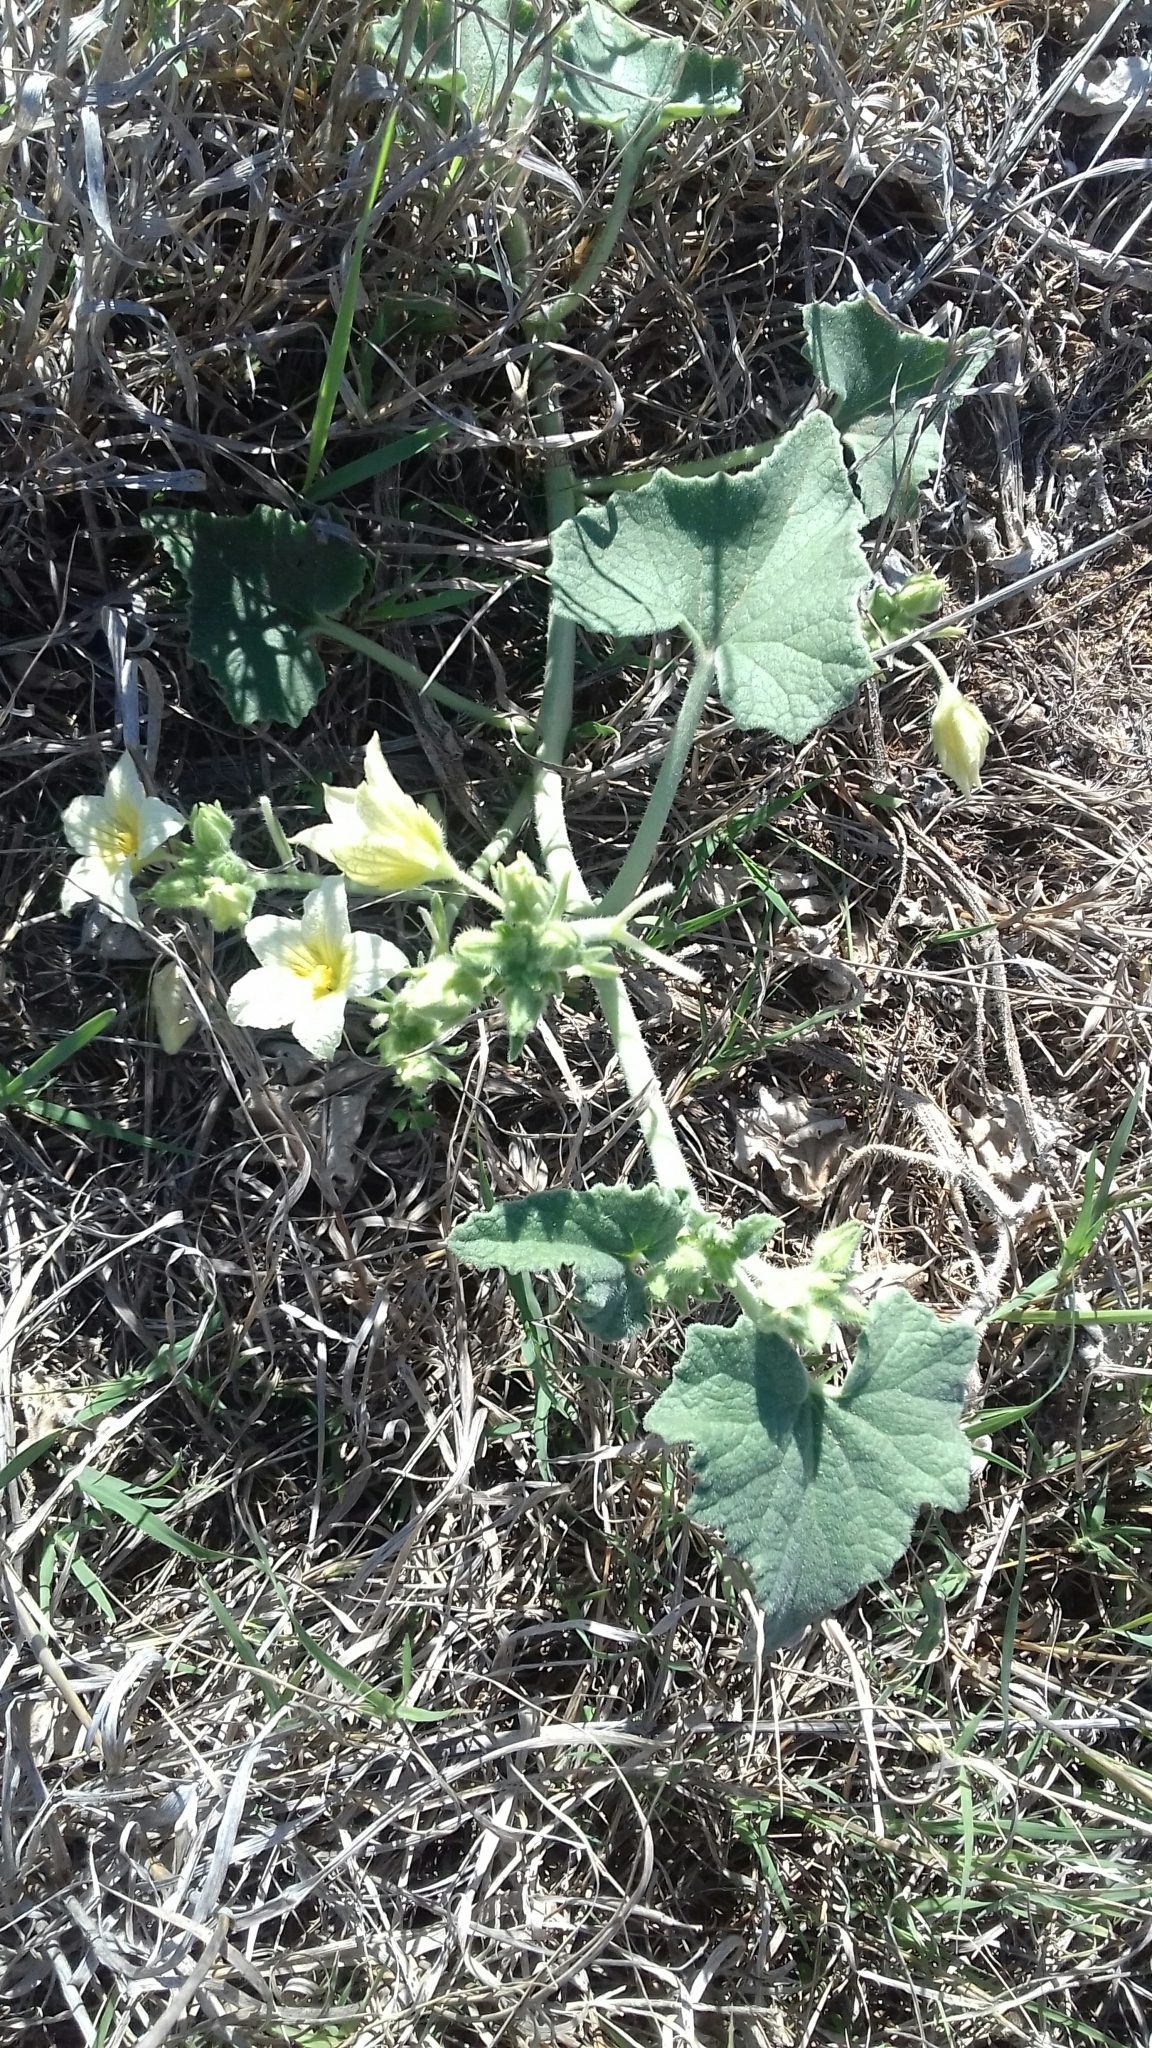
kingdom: Plantae
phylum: Tracheophyta
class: Magnoliopsida
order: Cucurbitales
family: Cucurbitaceae
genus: Ecballium
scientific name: Ecballium elaterium
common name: Squirting cucumber
